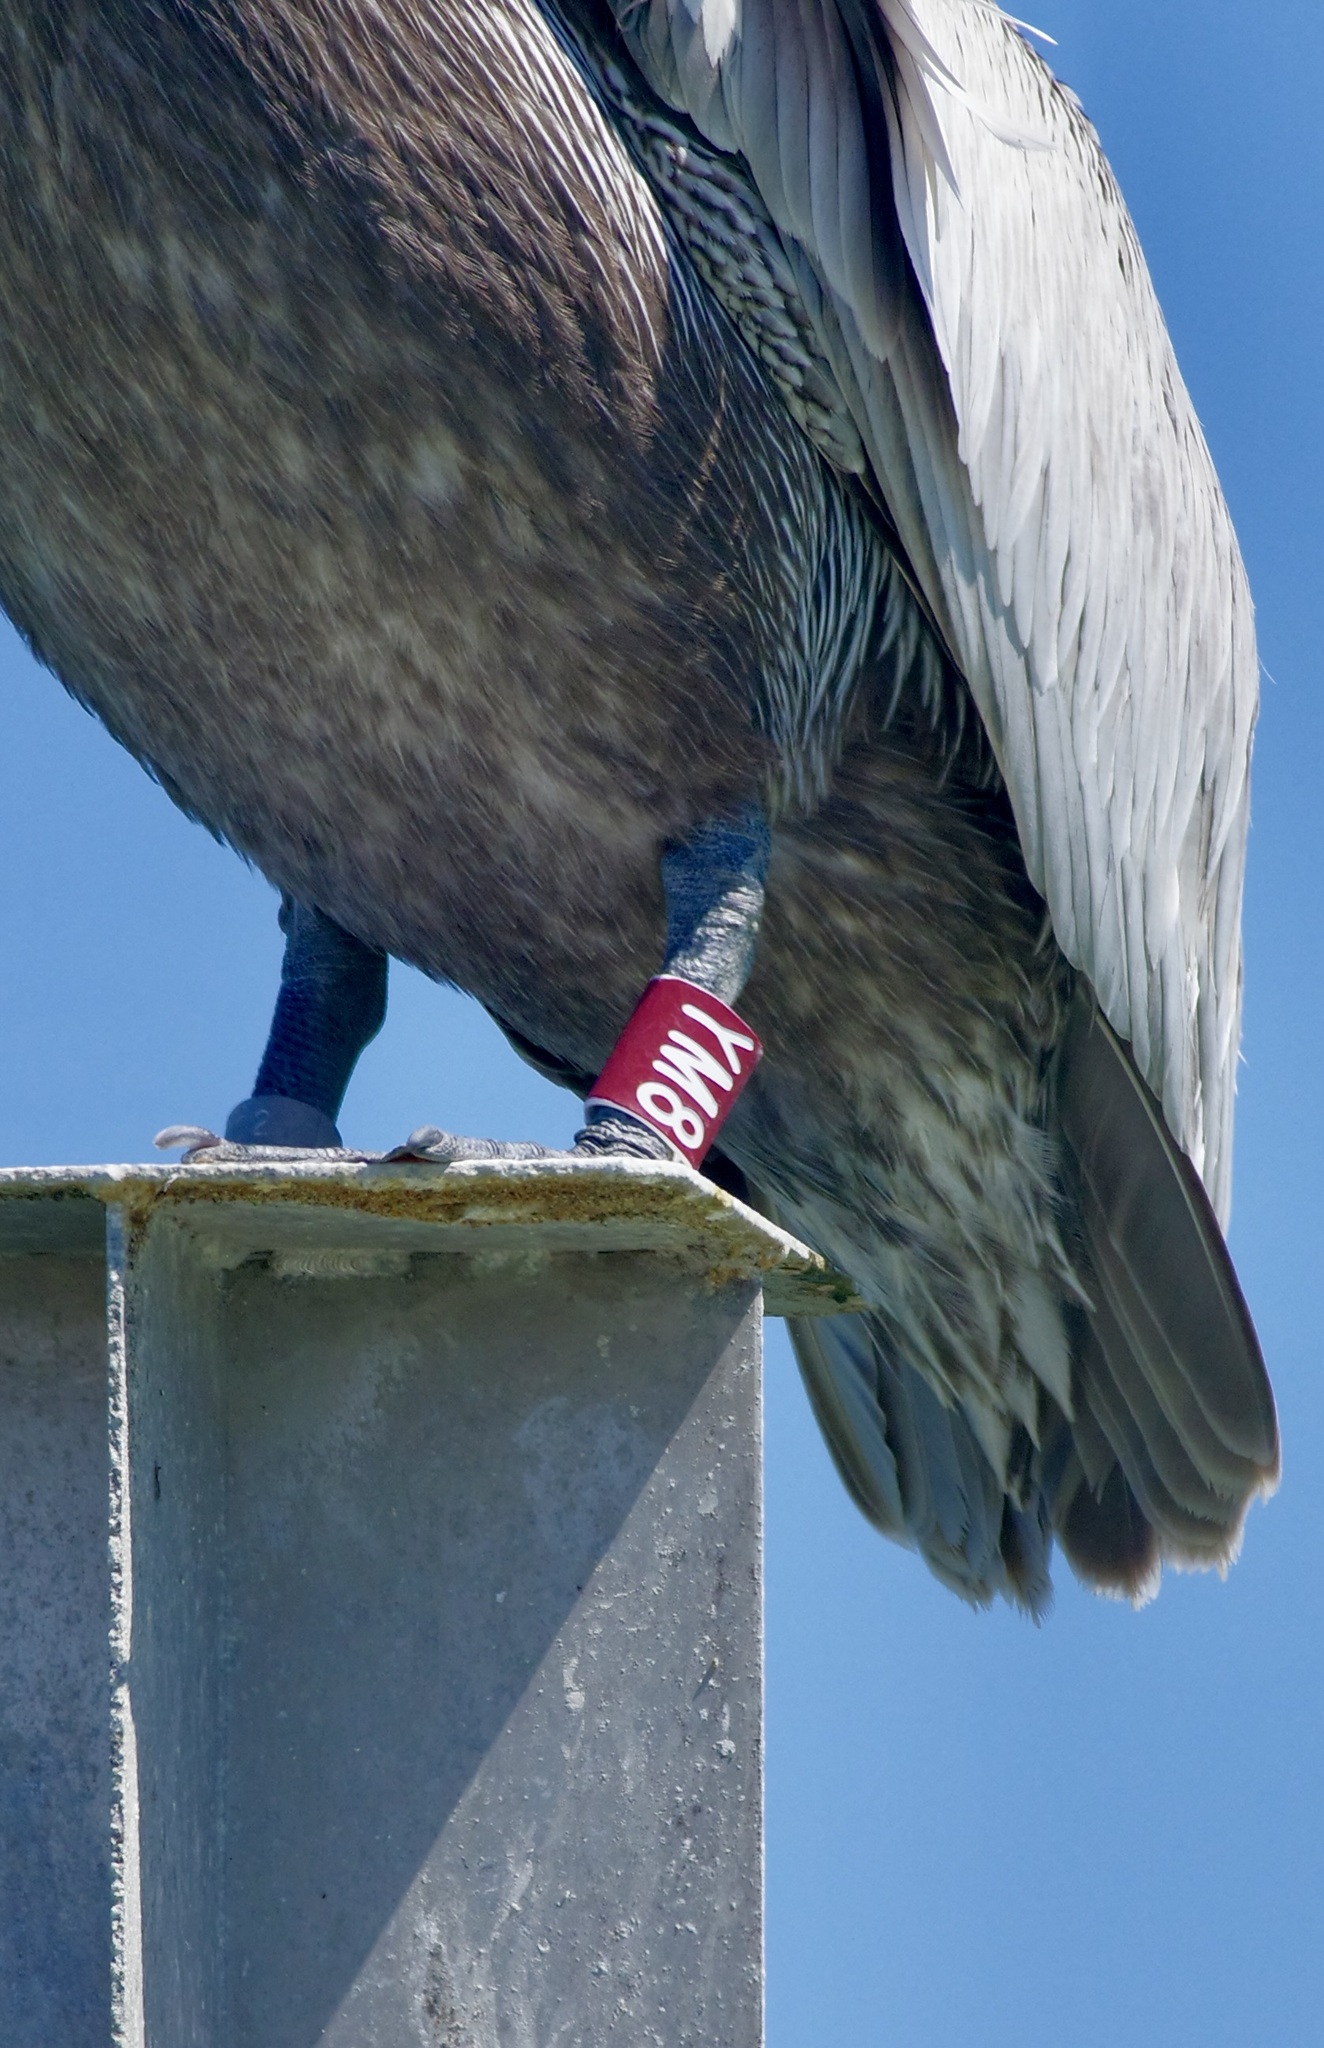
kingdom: Animalia
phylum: Chordata
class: Aves
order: Pelecaniformes
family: Pelecanidae
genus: Pelecanus
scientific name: Pelecanus occidentalis
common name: Brown pelican
